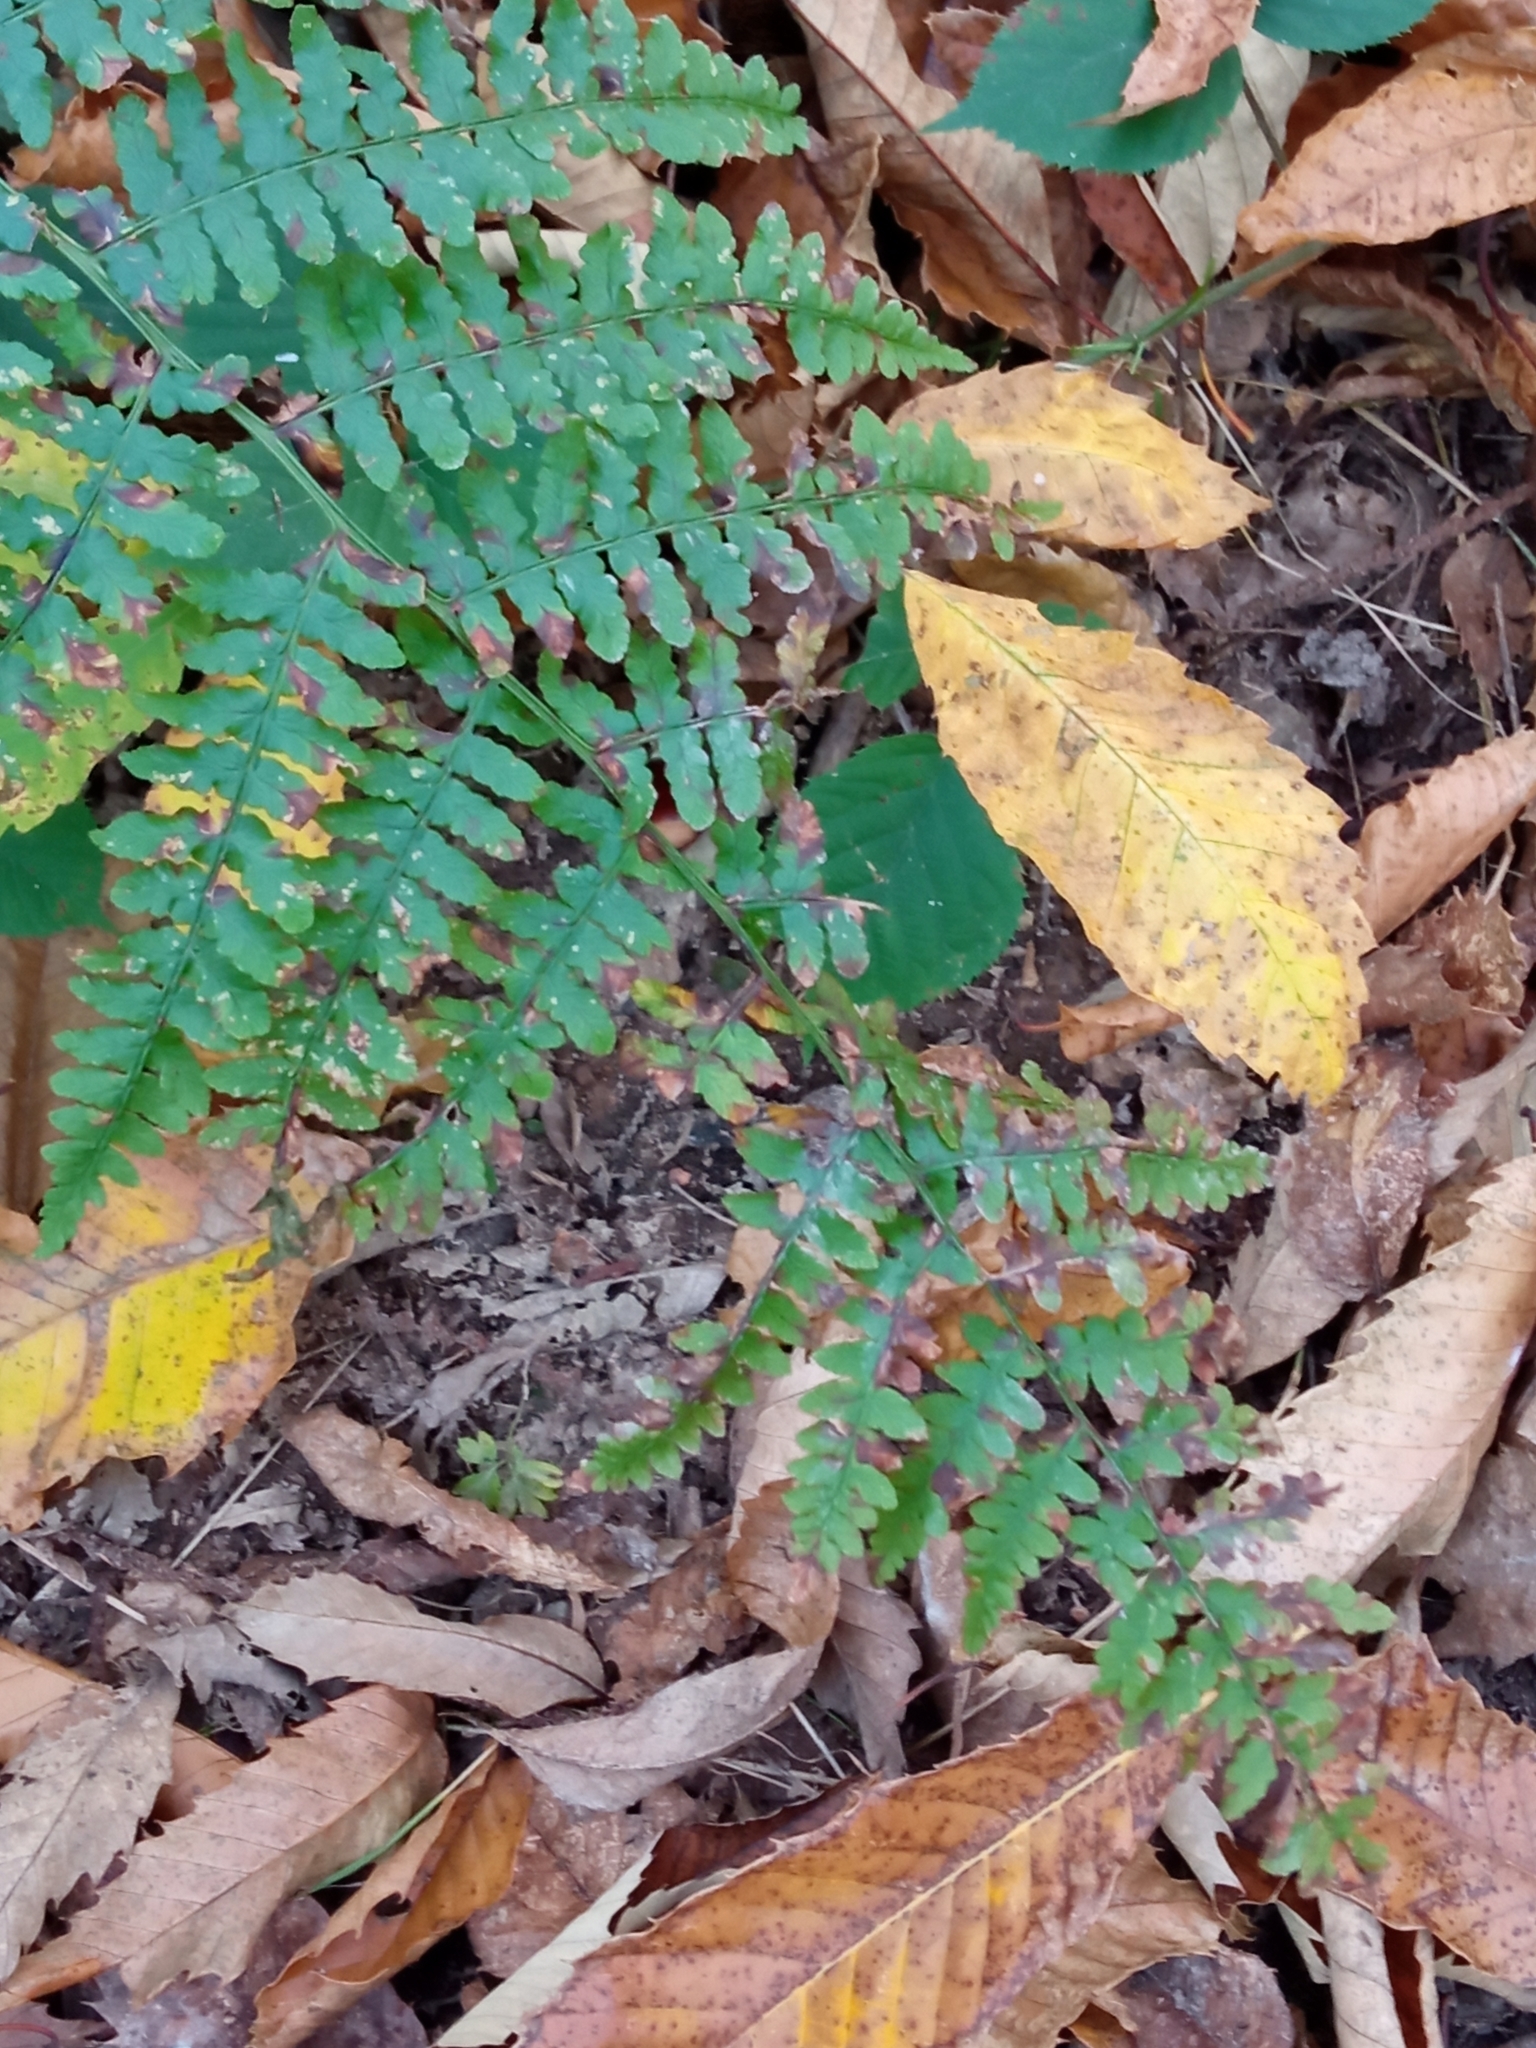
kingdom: Plantae
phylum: Tracheophyta
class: Polypodiopsida
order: Polypodiales
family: Dennstaedtiaceae
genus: Pteridium
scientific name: Pteridium aquilinum
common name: Bracken
